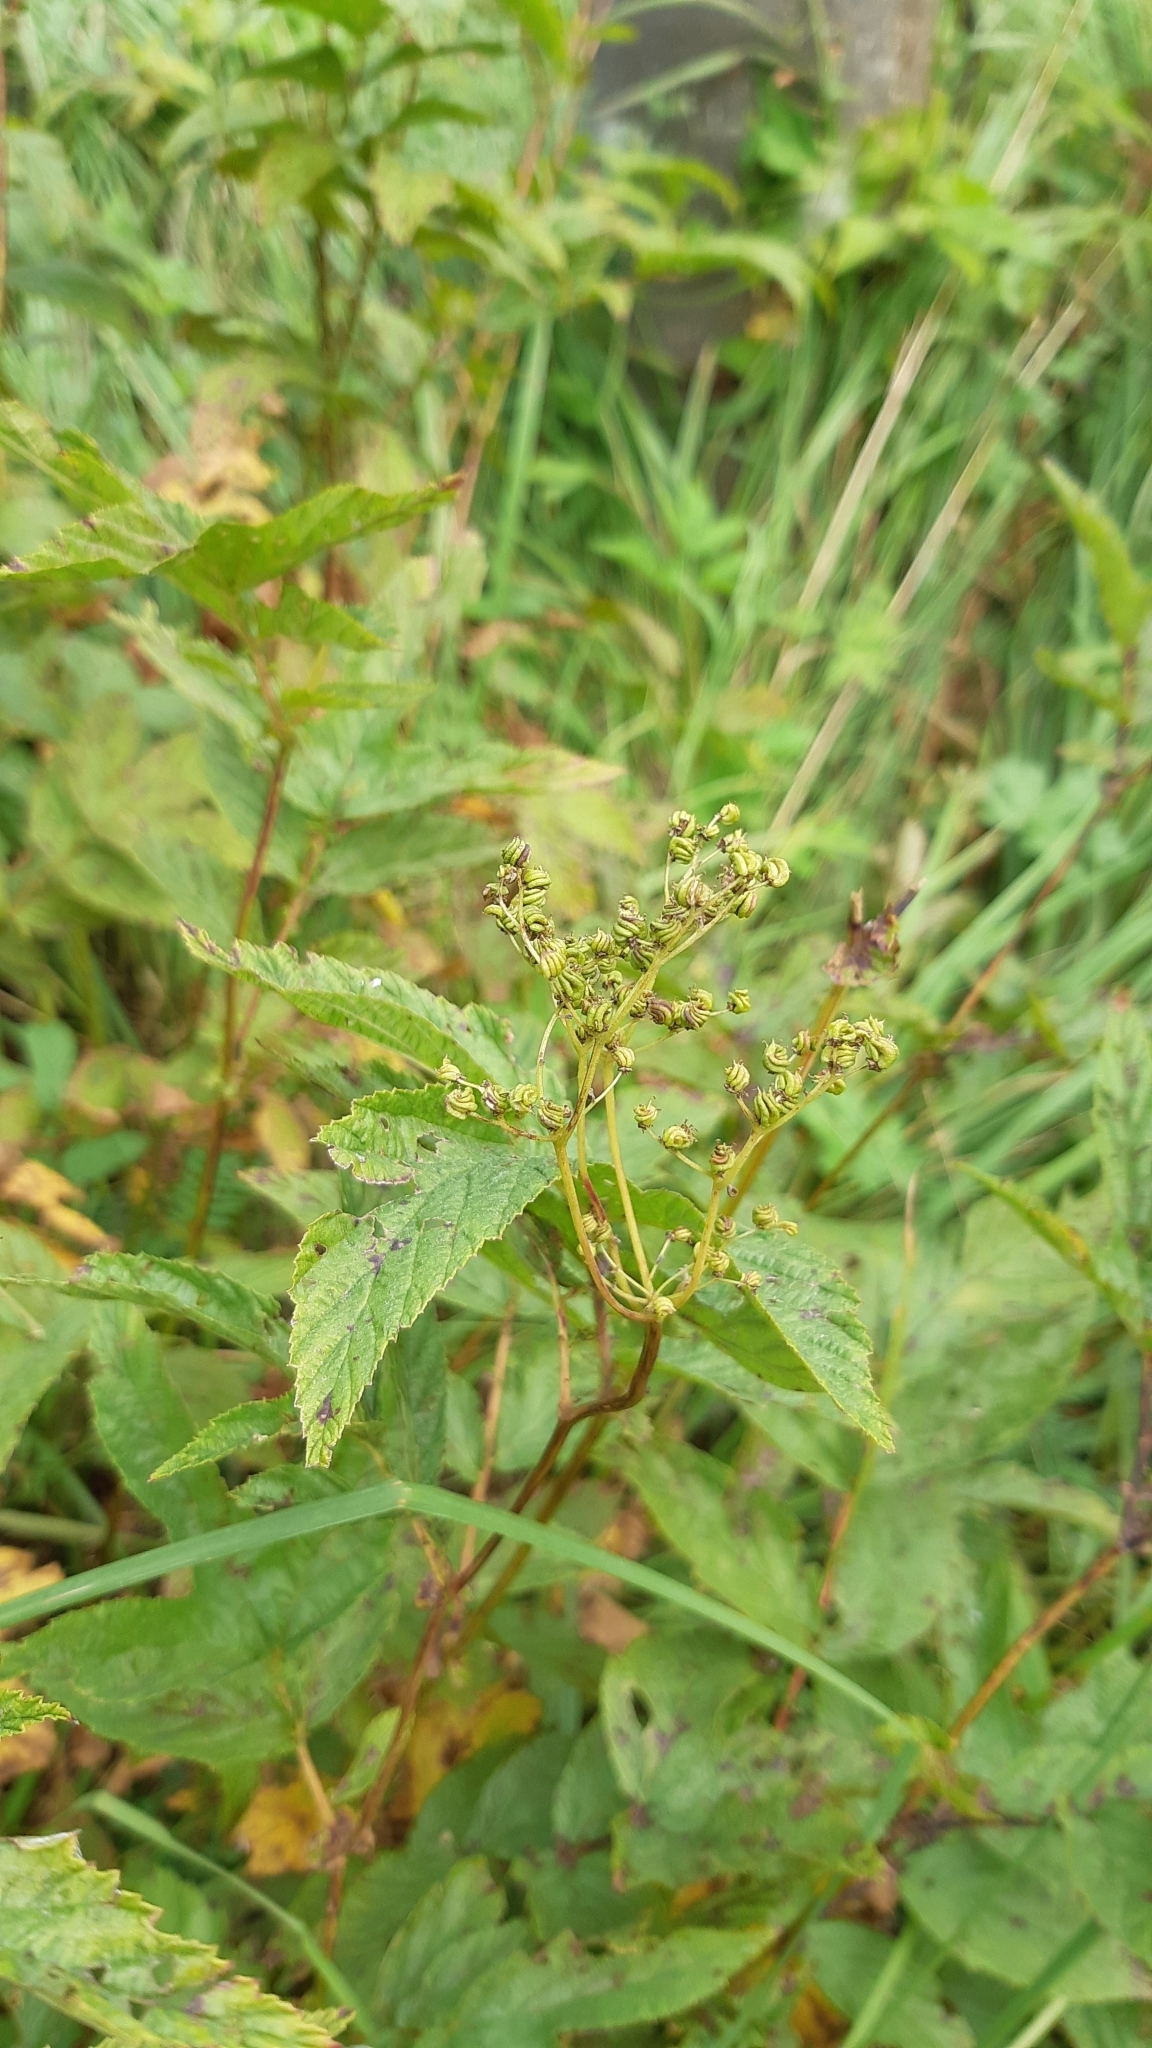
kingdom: Plantae
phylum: Tracheophyta
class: Magnoliopsida
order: Rosales
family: Rosaceae
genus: Filipendula
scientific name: Filipendula ulmaria
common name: Meadowsweet
